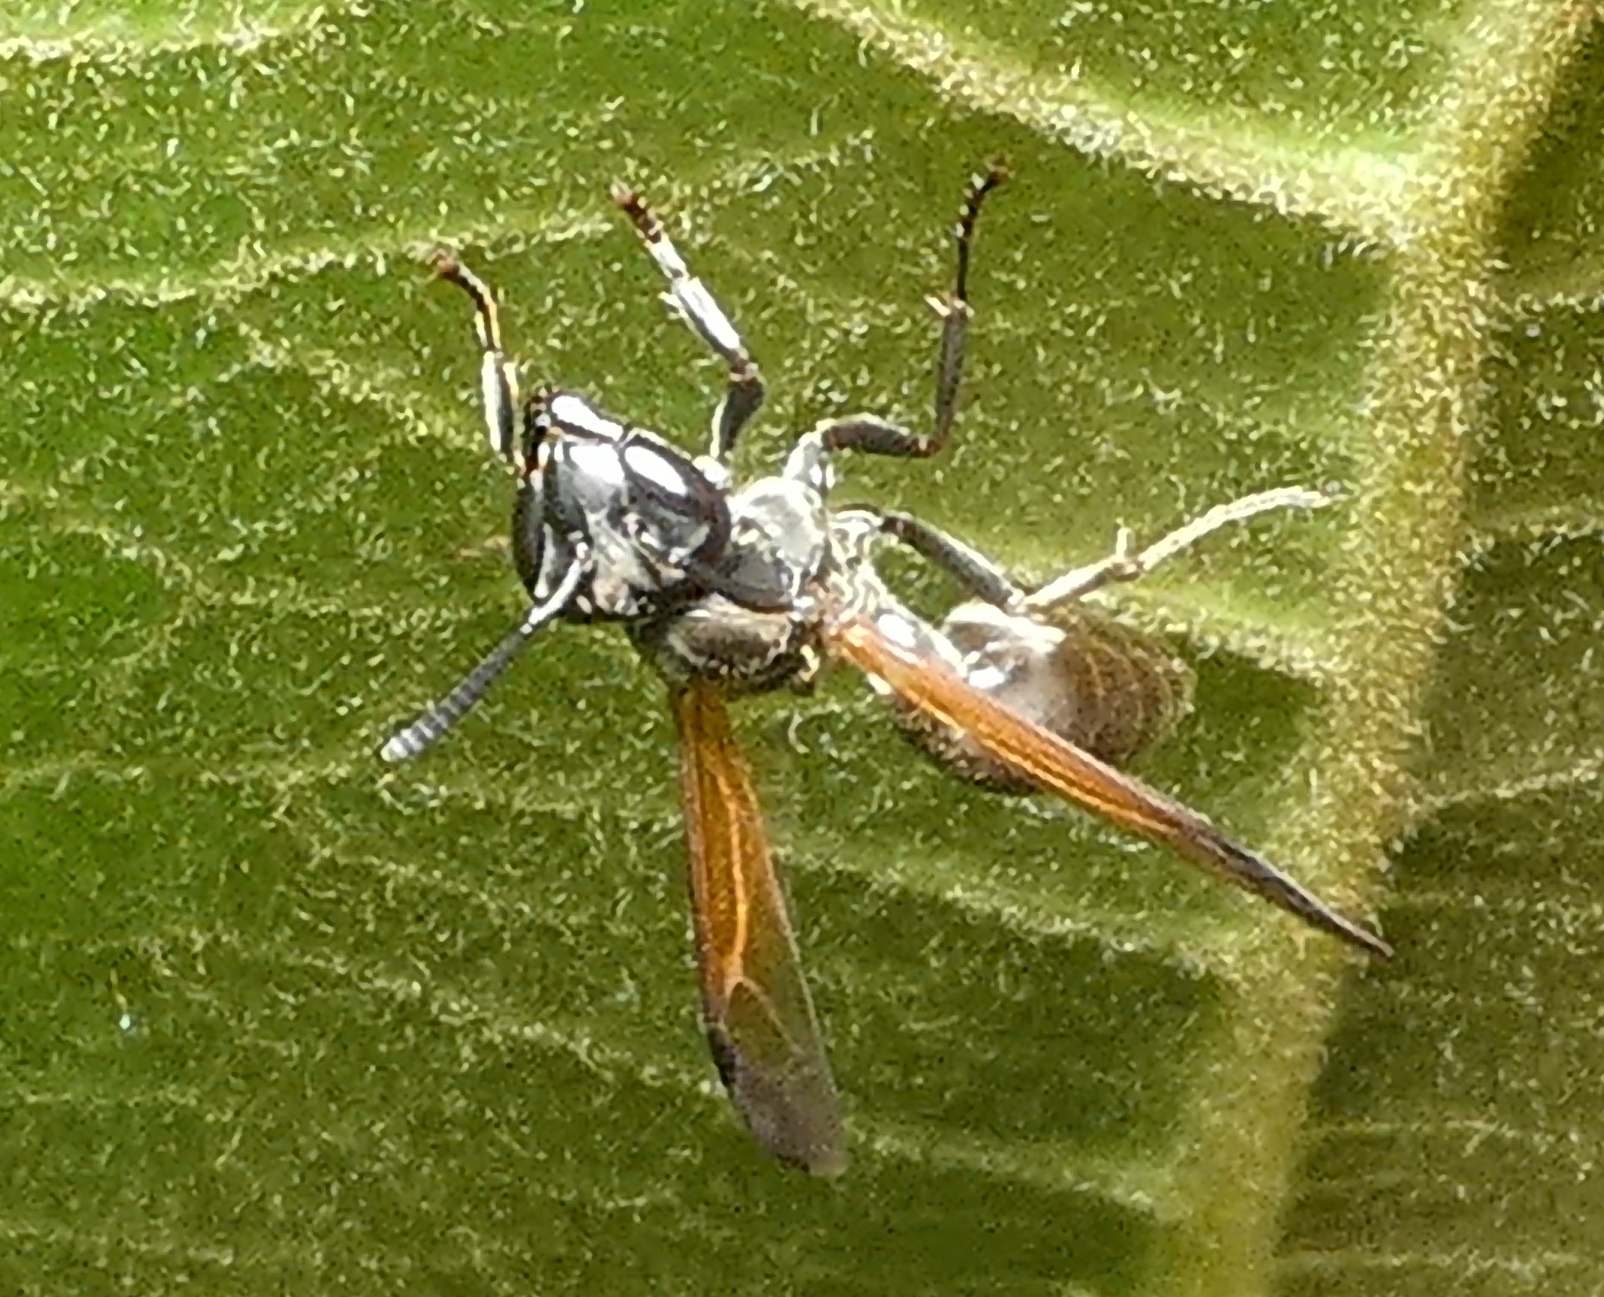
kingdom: Animalia
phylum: Arthropoda
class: Insecta
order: Hymenoptera
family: Eumenidae
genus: Polybia
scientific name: Polybia rejecta
